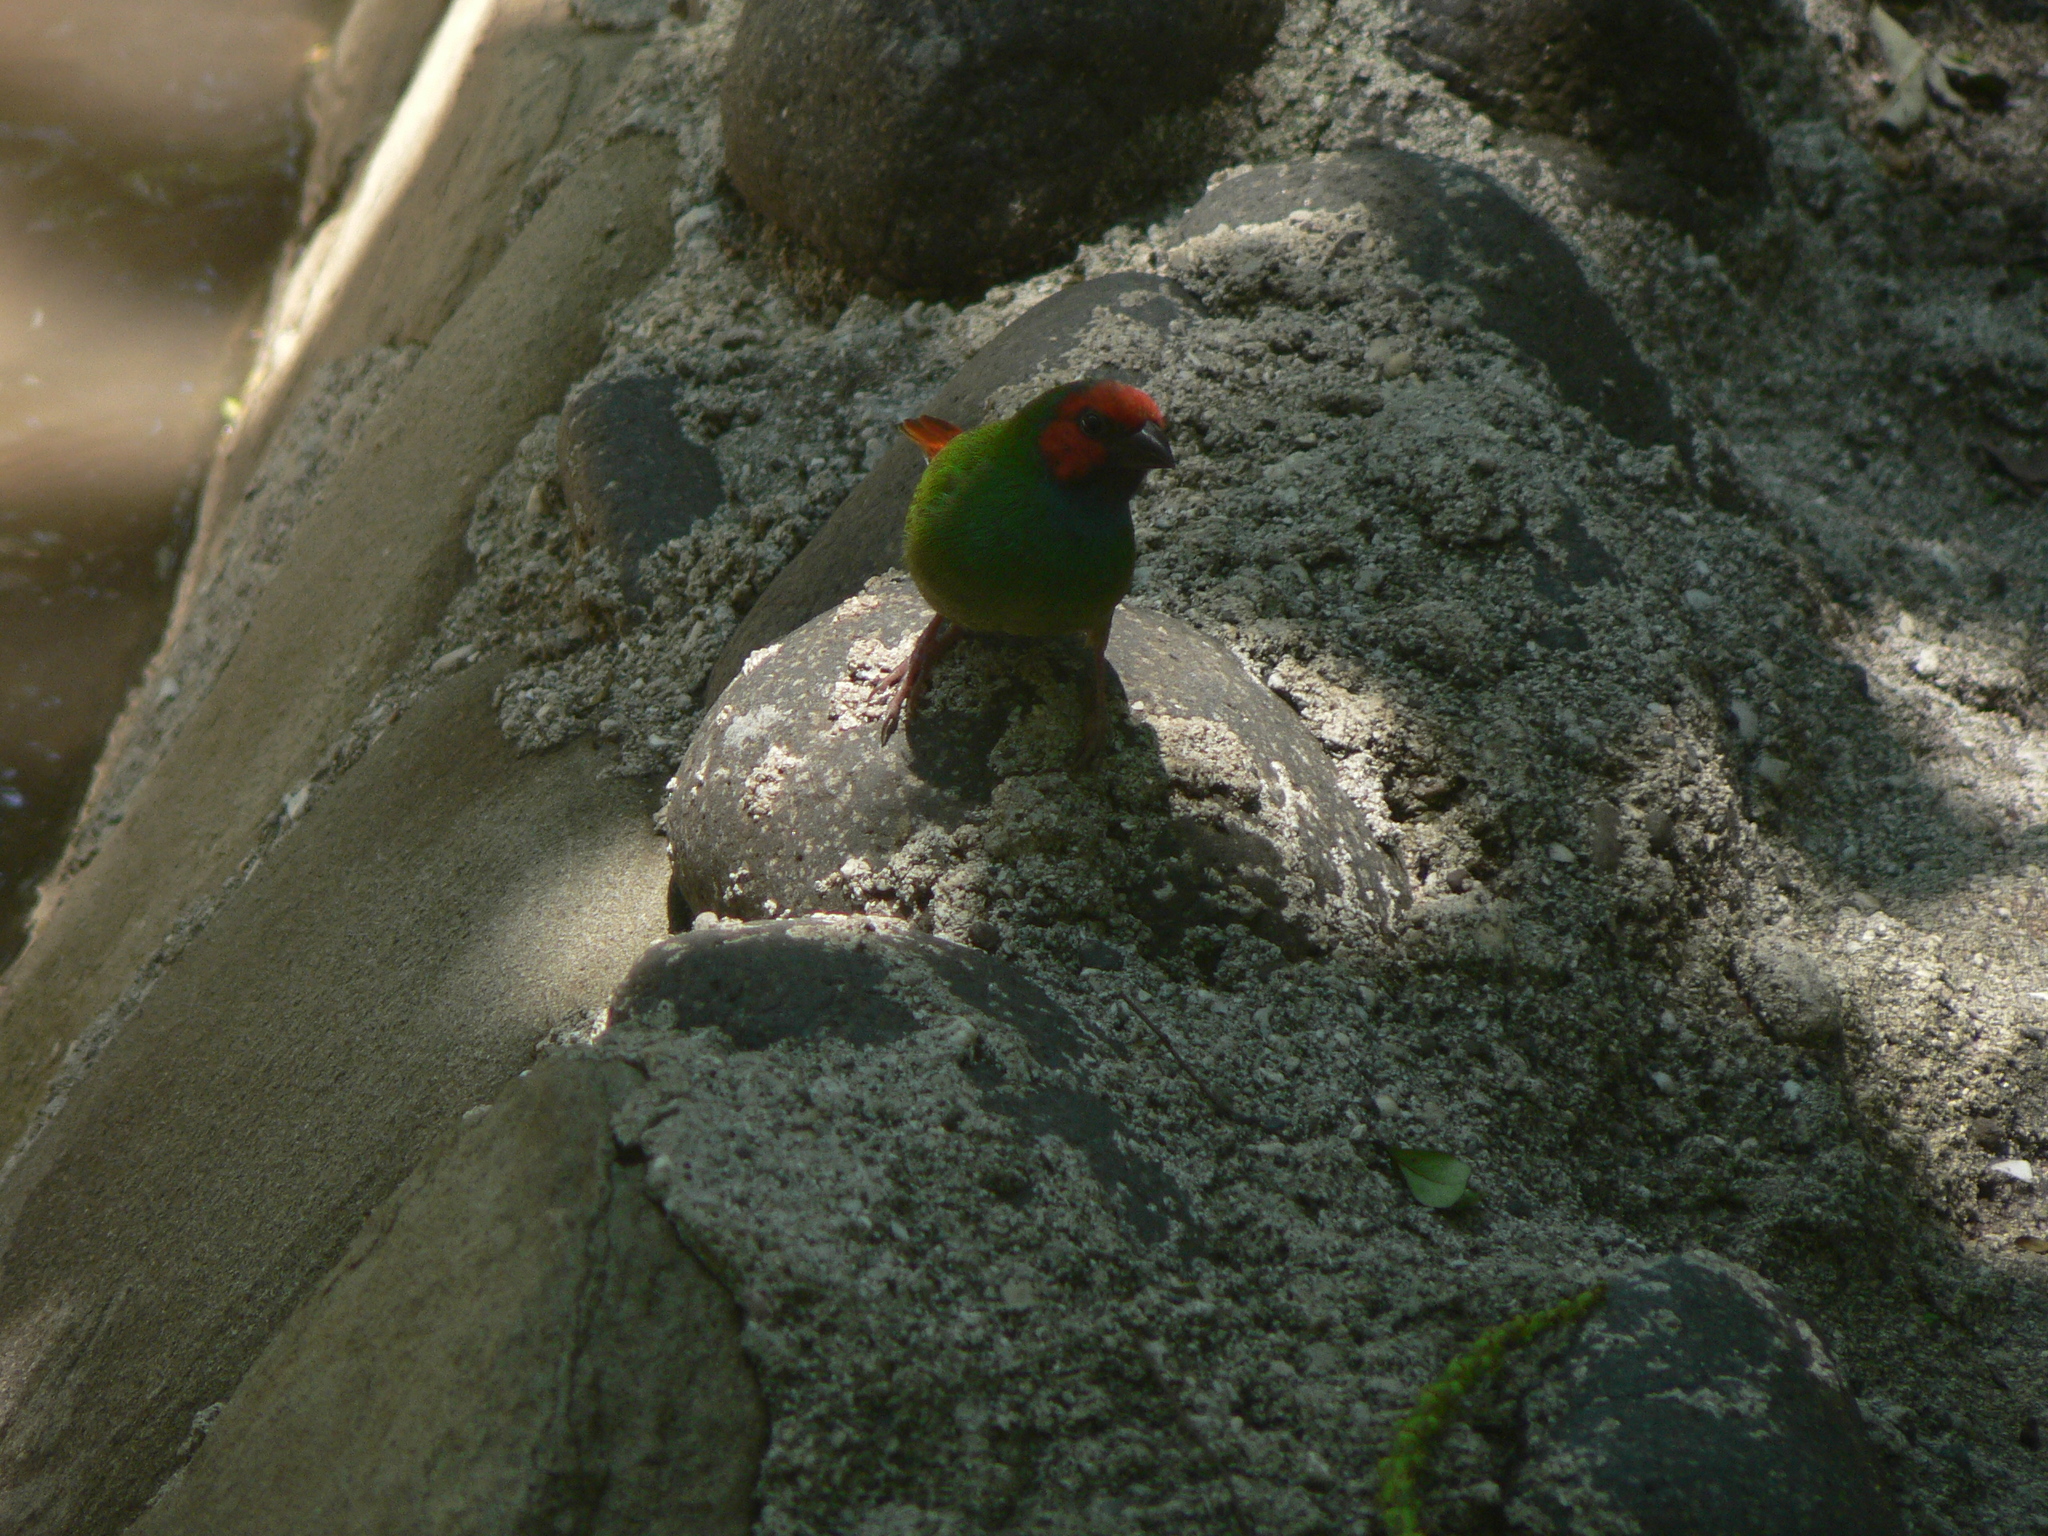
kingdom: Animalia
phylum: Chordata
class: Aves
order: Passeriformes
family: Estrildidae
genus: Erythrura
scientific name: Erythrura pealii
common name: Fiji parrotfinch
